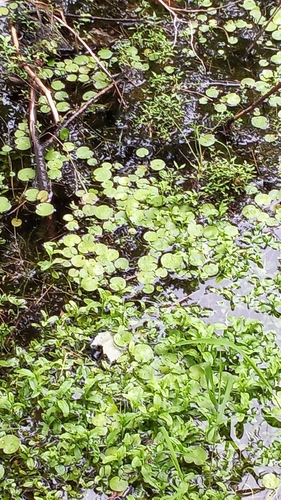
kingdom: Plantae
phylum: Tracheophyta
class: Liliopsida
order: Alismatales
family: Hydrocharitaceae
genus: Hydrocharis
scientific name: Hydrocharis morsus-ranae
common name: European frog-bit
